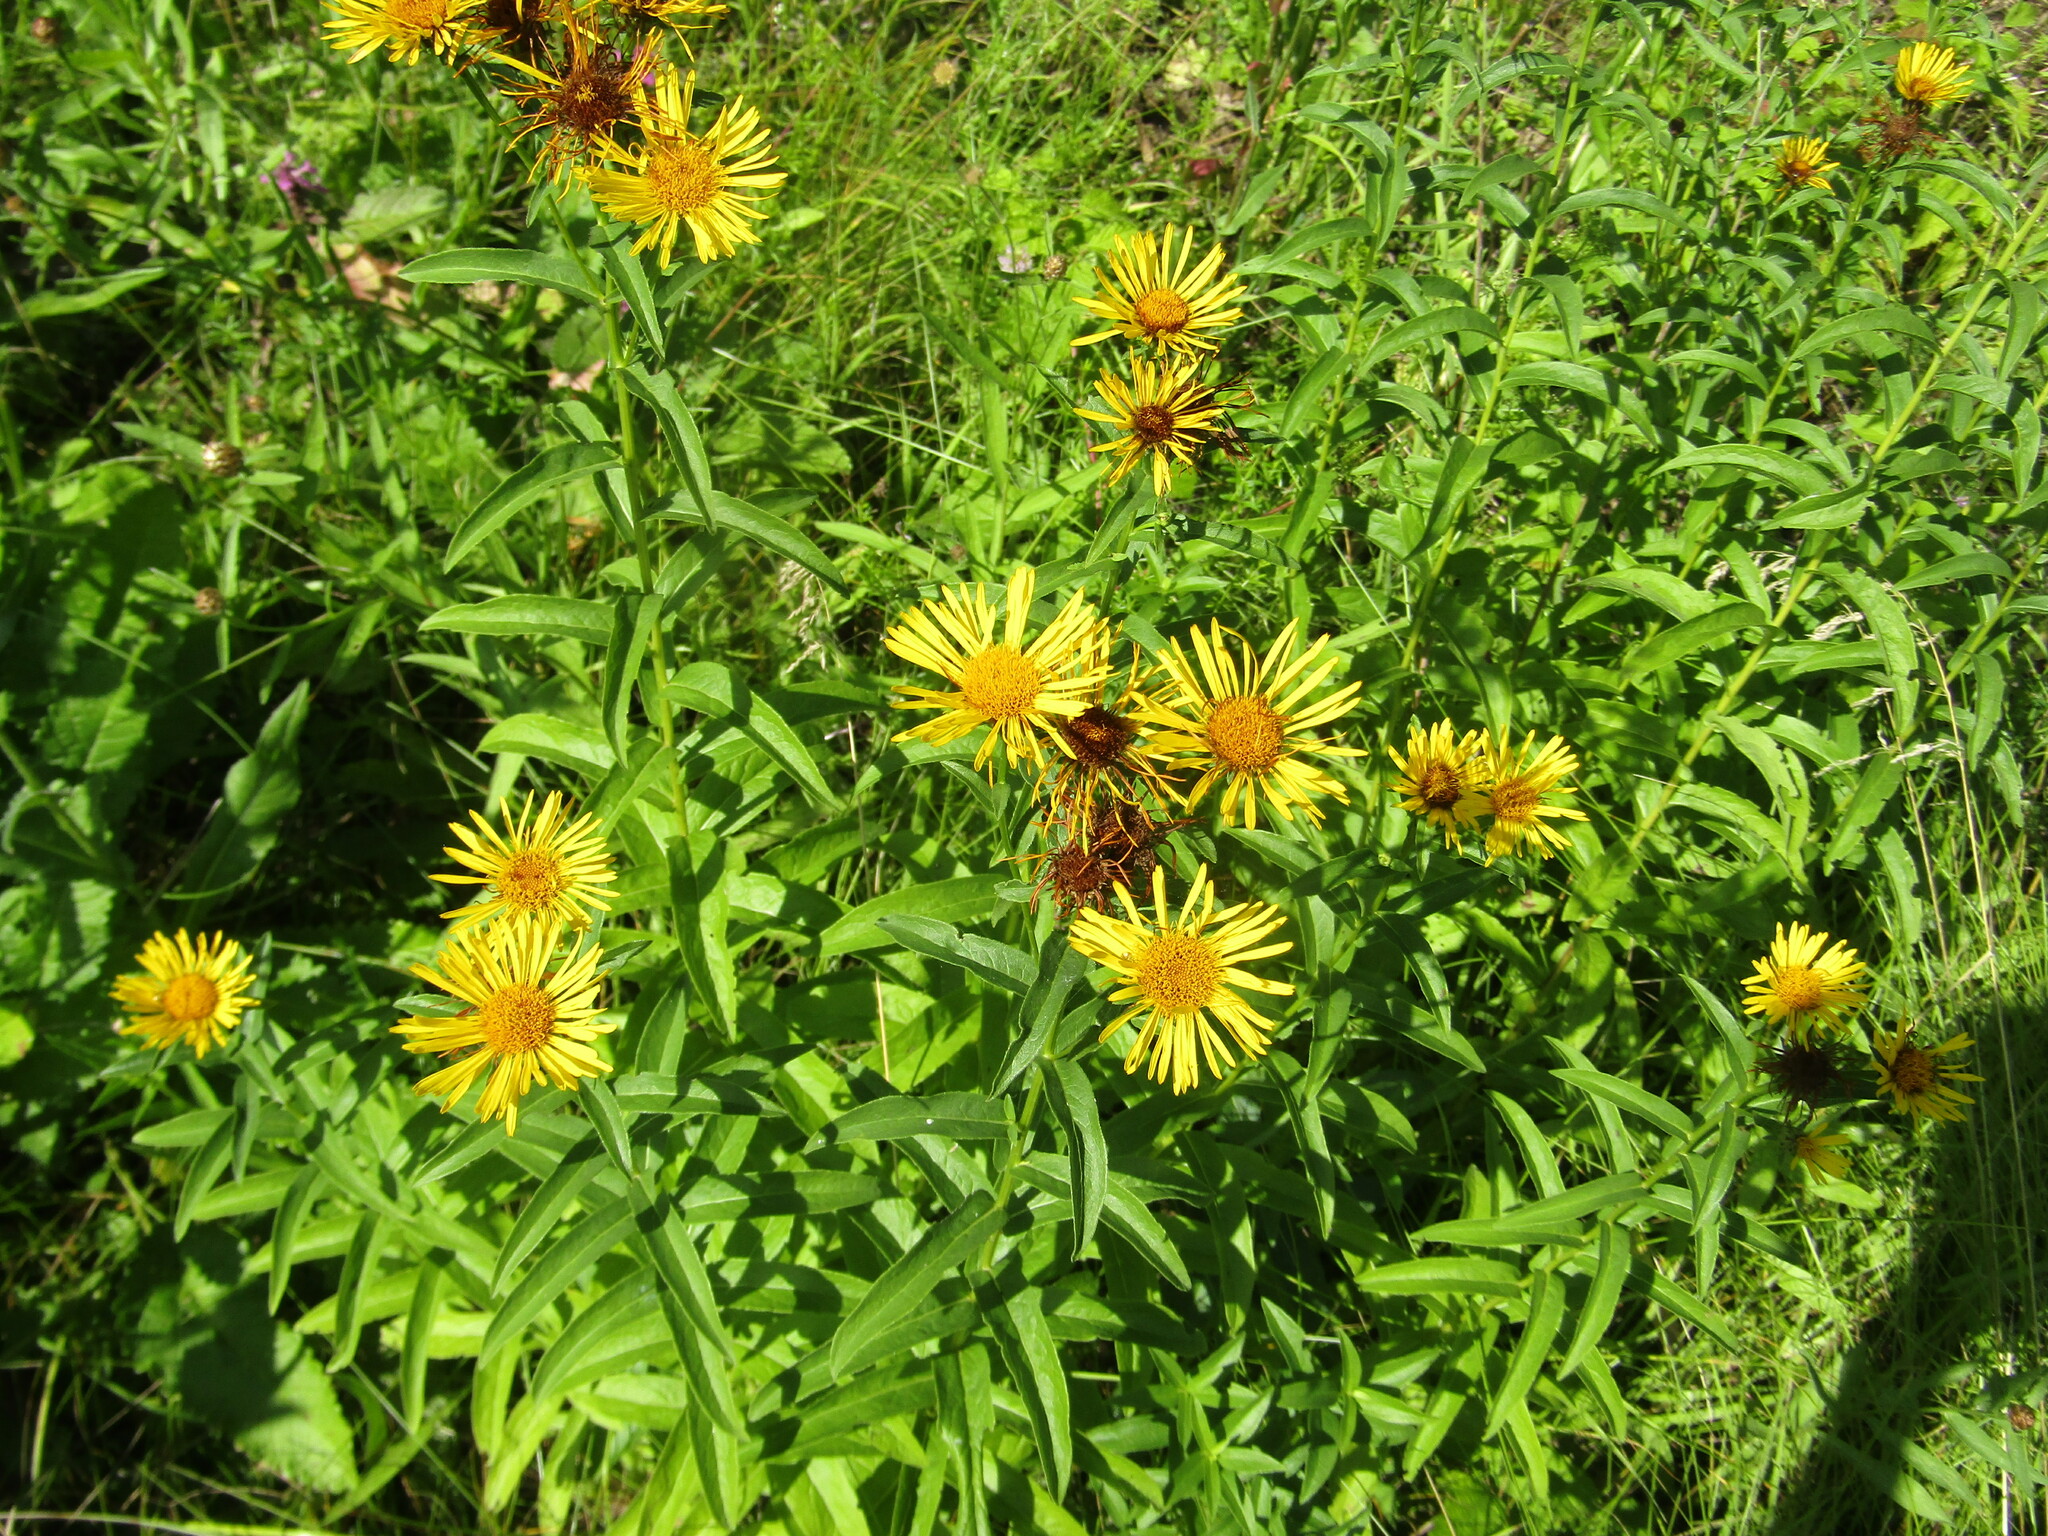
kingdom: Plantae
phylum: Tracheophyta
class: Magnoliopsida
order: Asterales
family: Asteraceae
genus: Pentanema
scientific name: Pentanema salicinum
